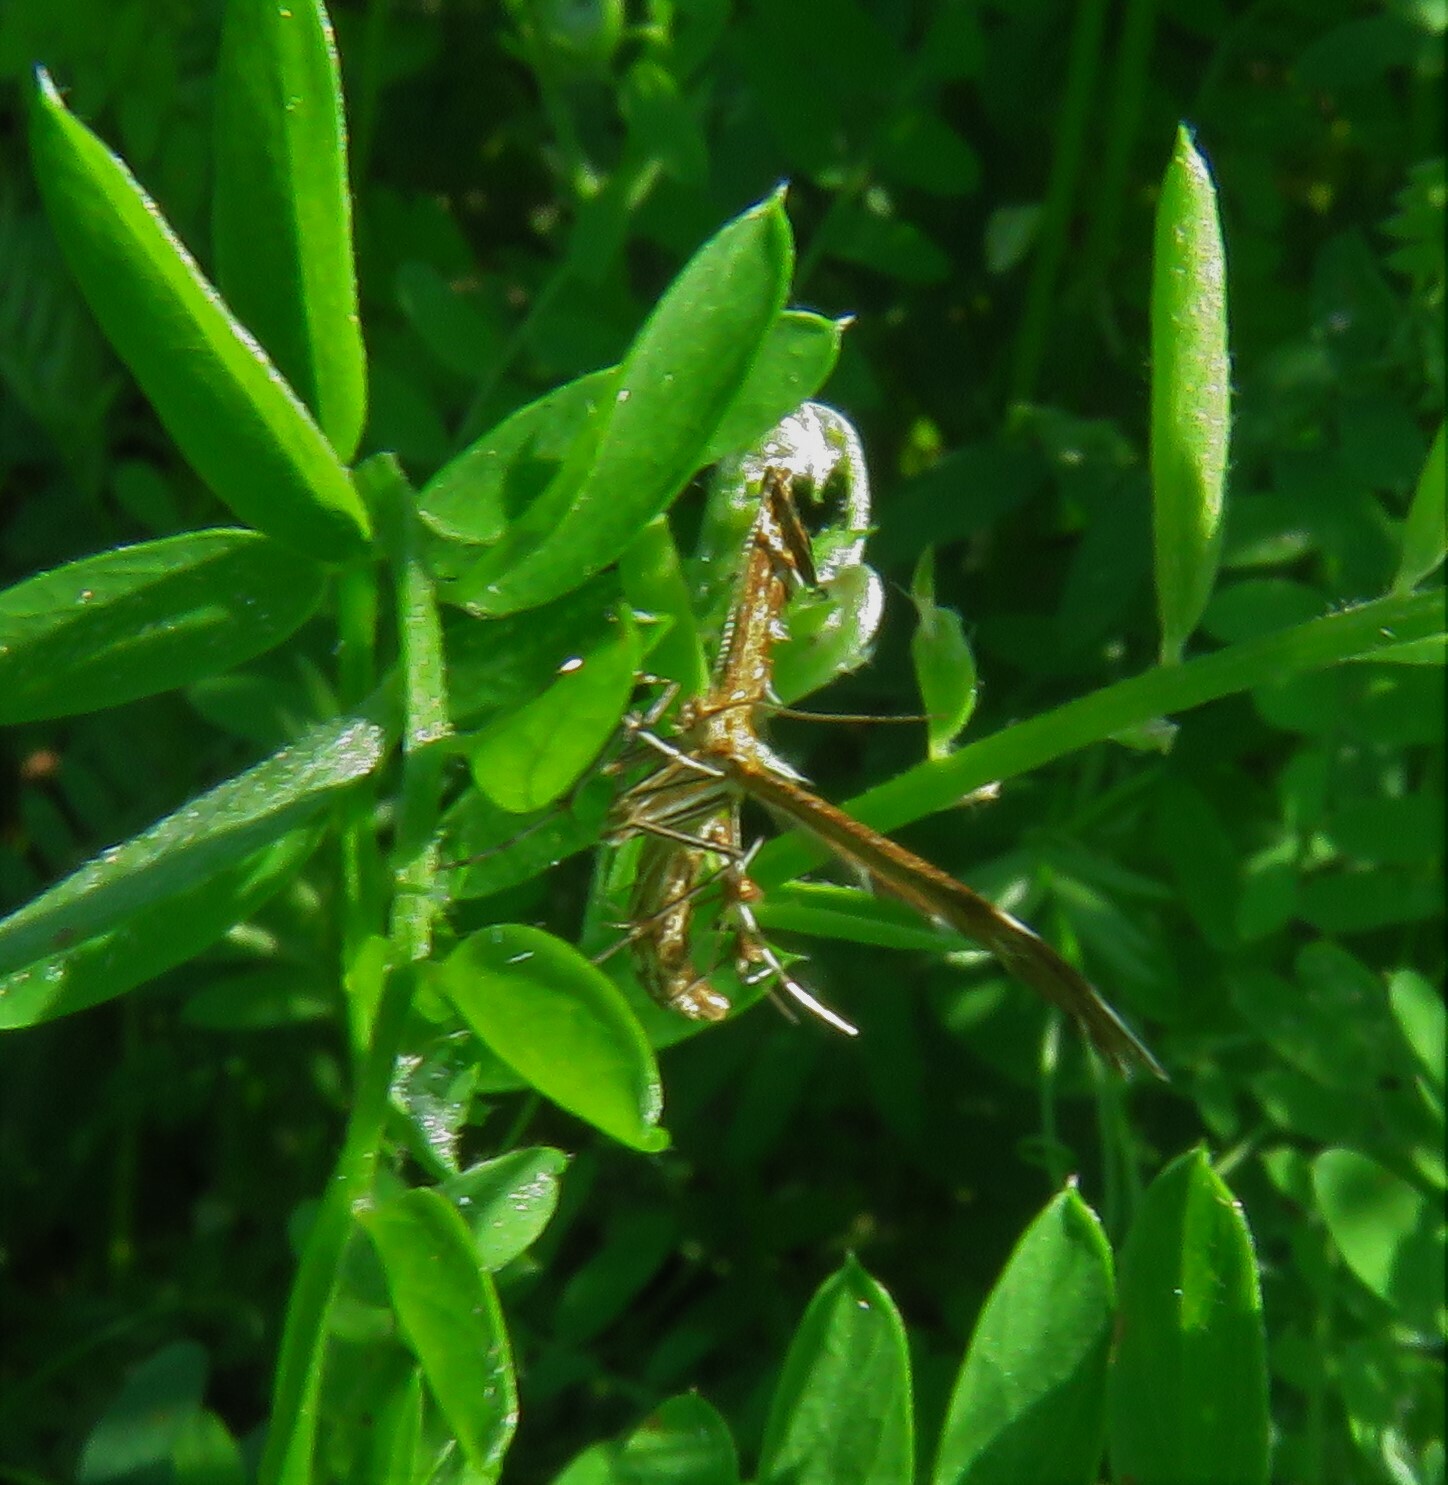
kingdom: Animalia
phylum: Arthropoda
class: Insecta
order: Lepidoptera
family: Pterophoridae
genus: Dejongia
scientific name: Dejongia lobidactylus
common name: Lobed plume moth
